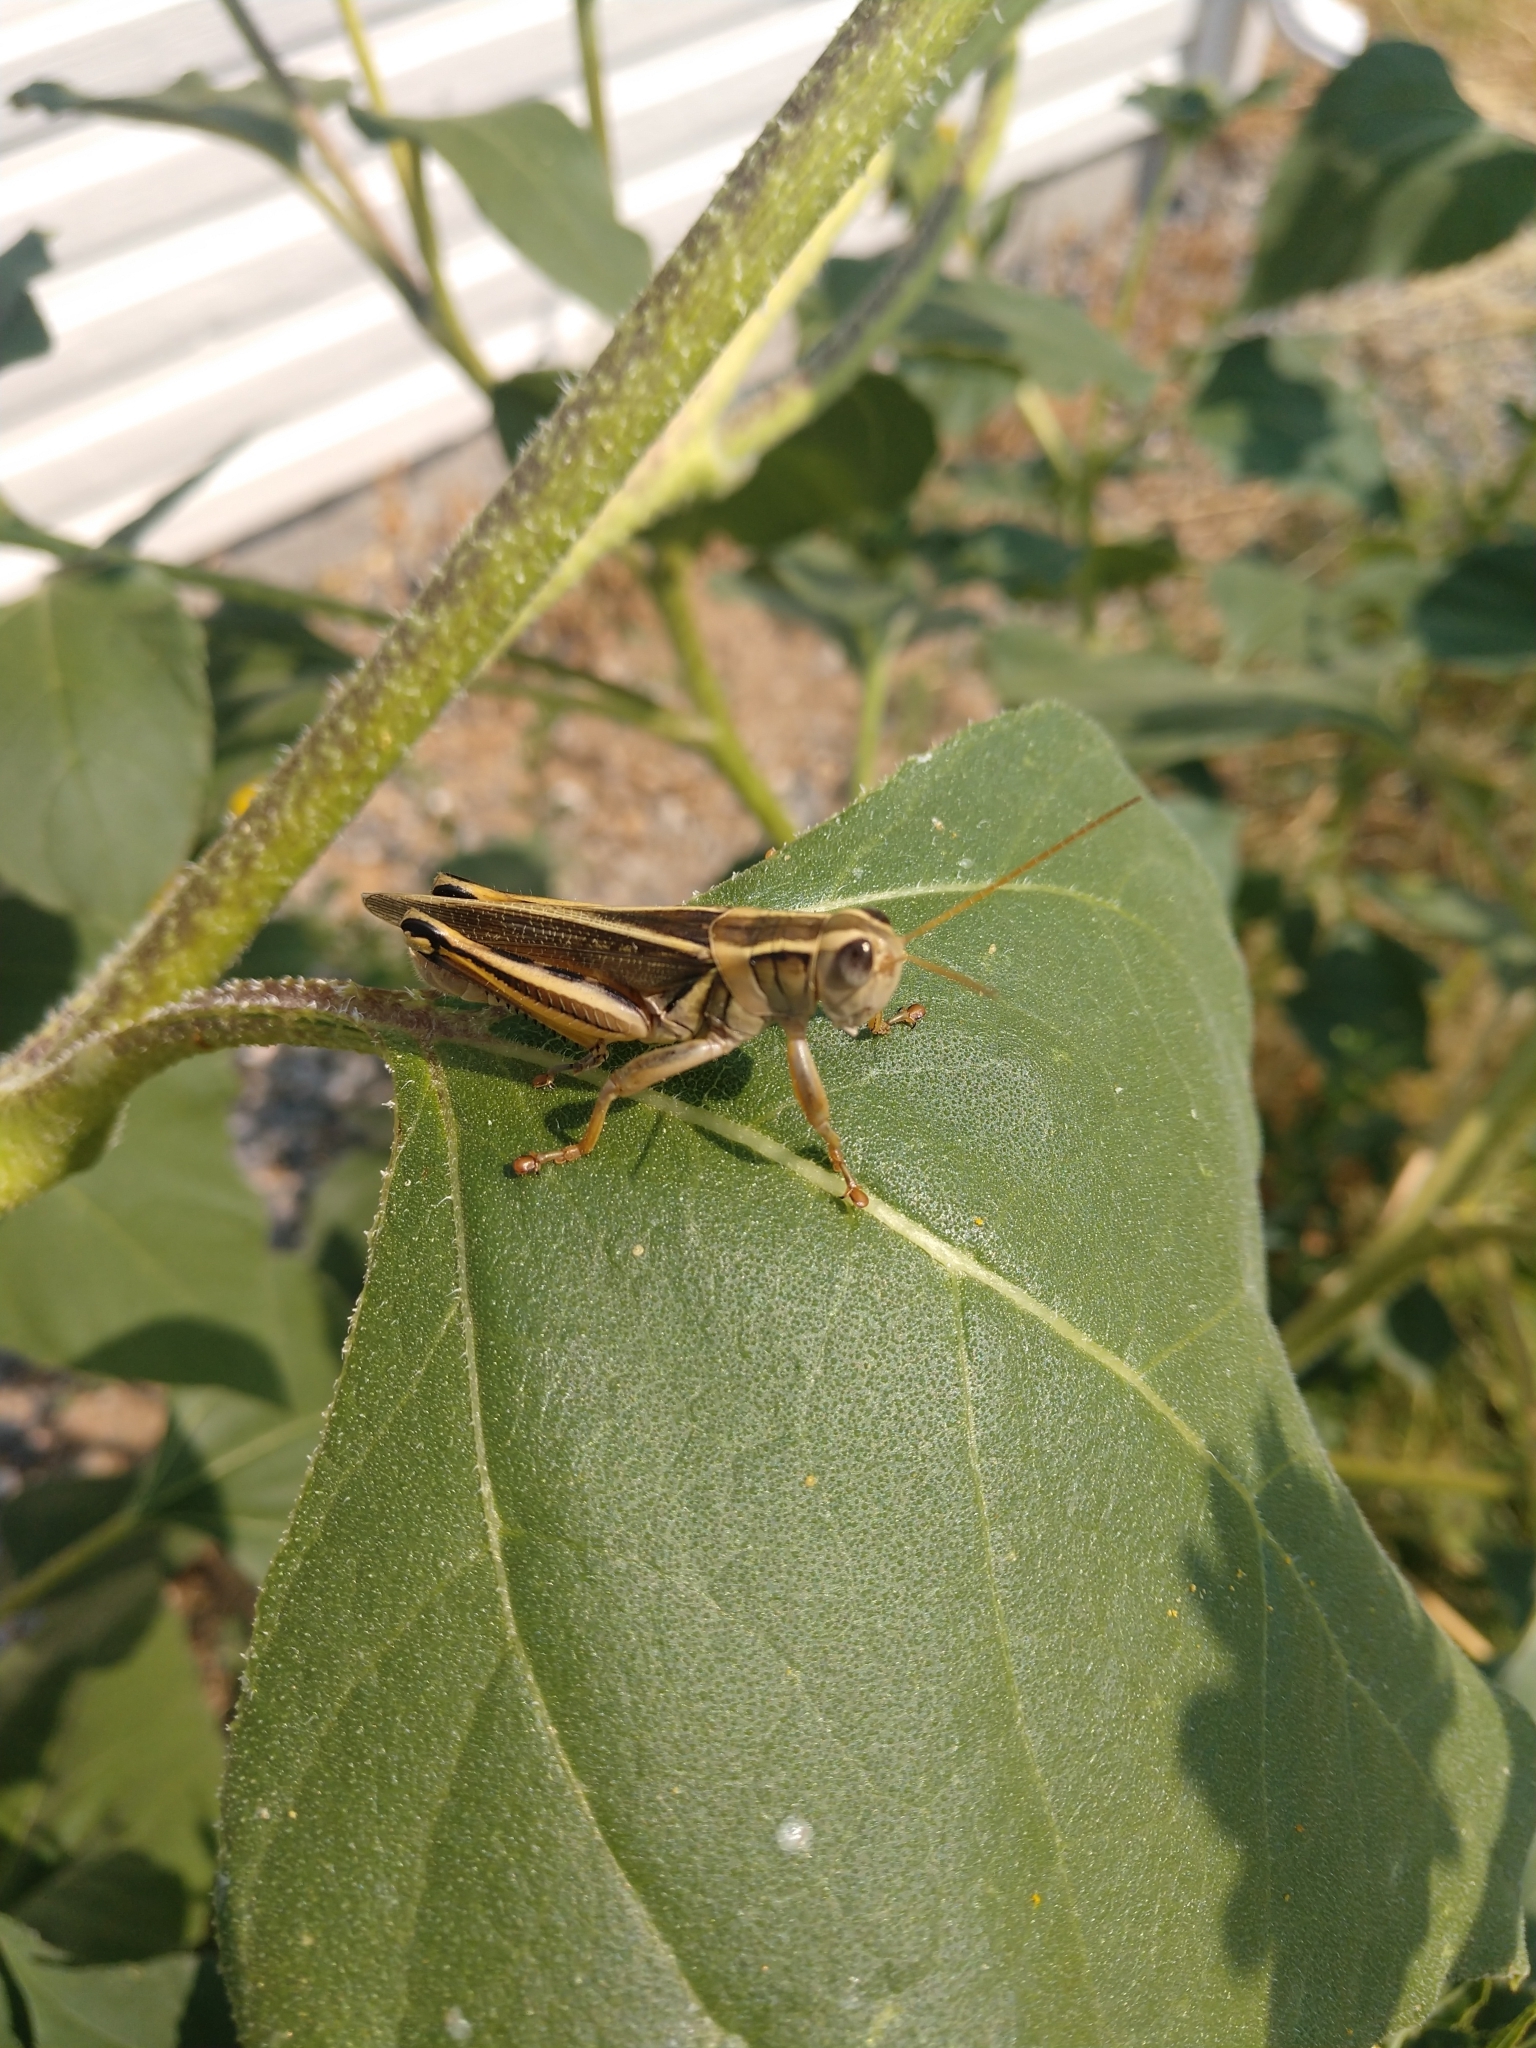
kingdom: Animalia
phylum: Arthropoda
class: Insecta
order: Orthoptera
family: Acrididae
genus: Melanoplus
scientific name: Melanoplus bivittatus
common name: Two-striped grasshopper
